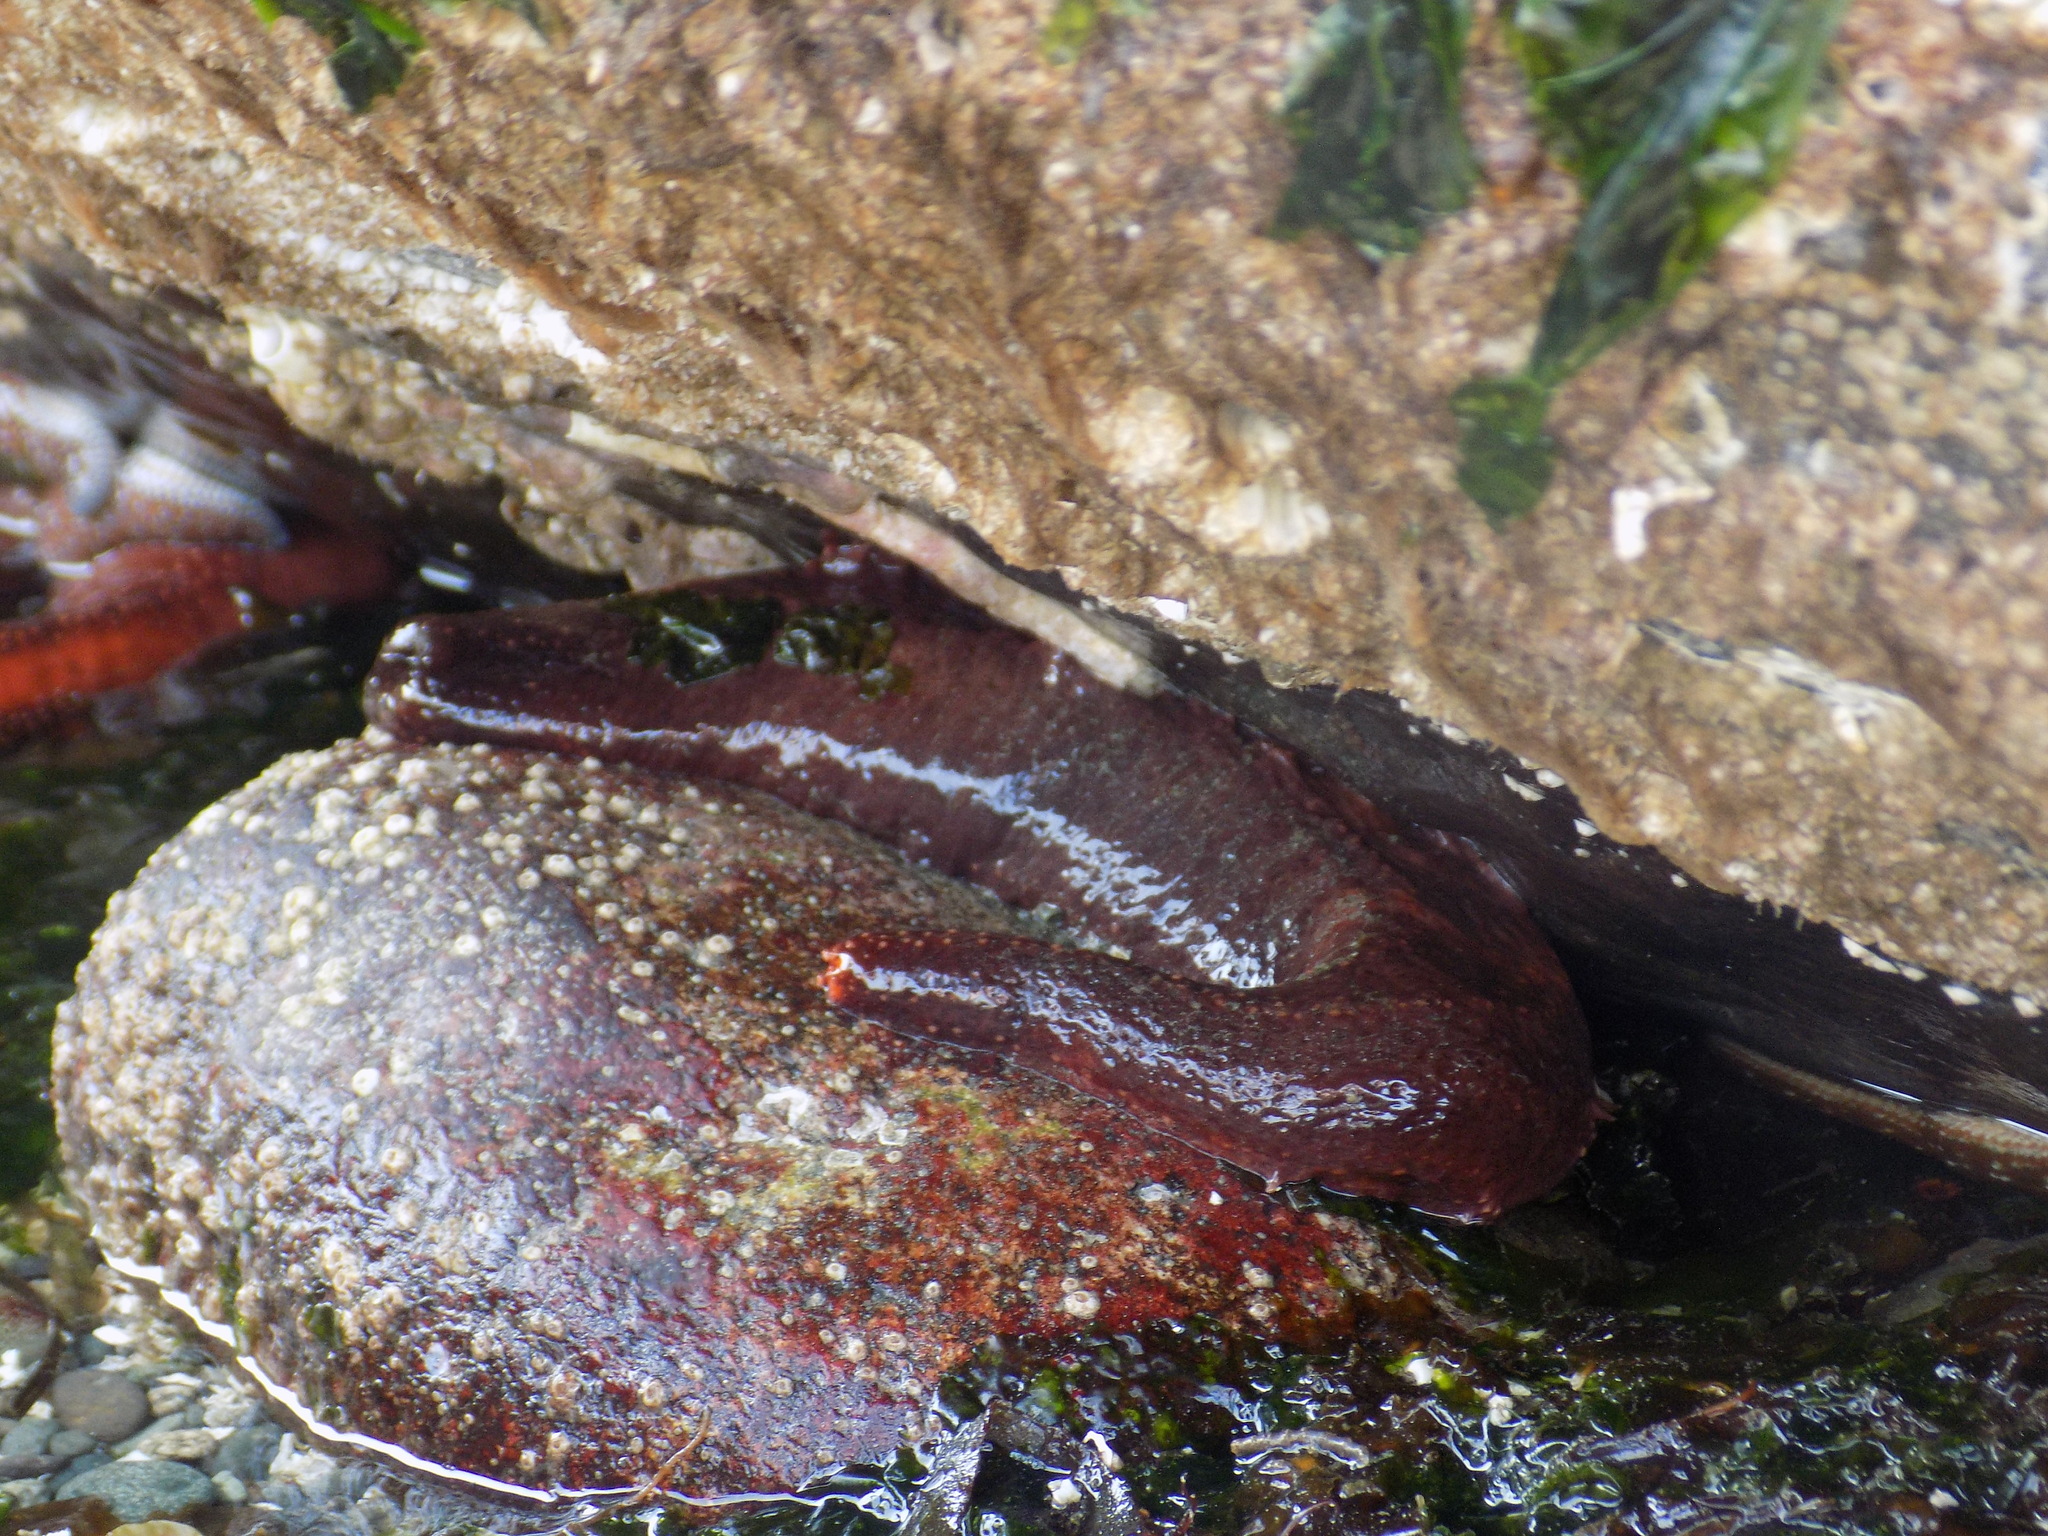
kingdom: Animalia
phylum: Echinodermata
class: Holothuroidea
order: Dendrochirotida
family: Cucumariidae
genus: Cucumaria
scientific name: Cucumaria miniata
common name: Orange sea cucumber
